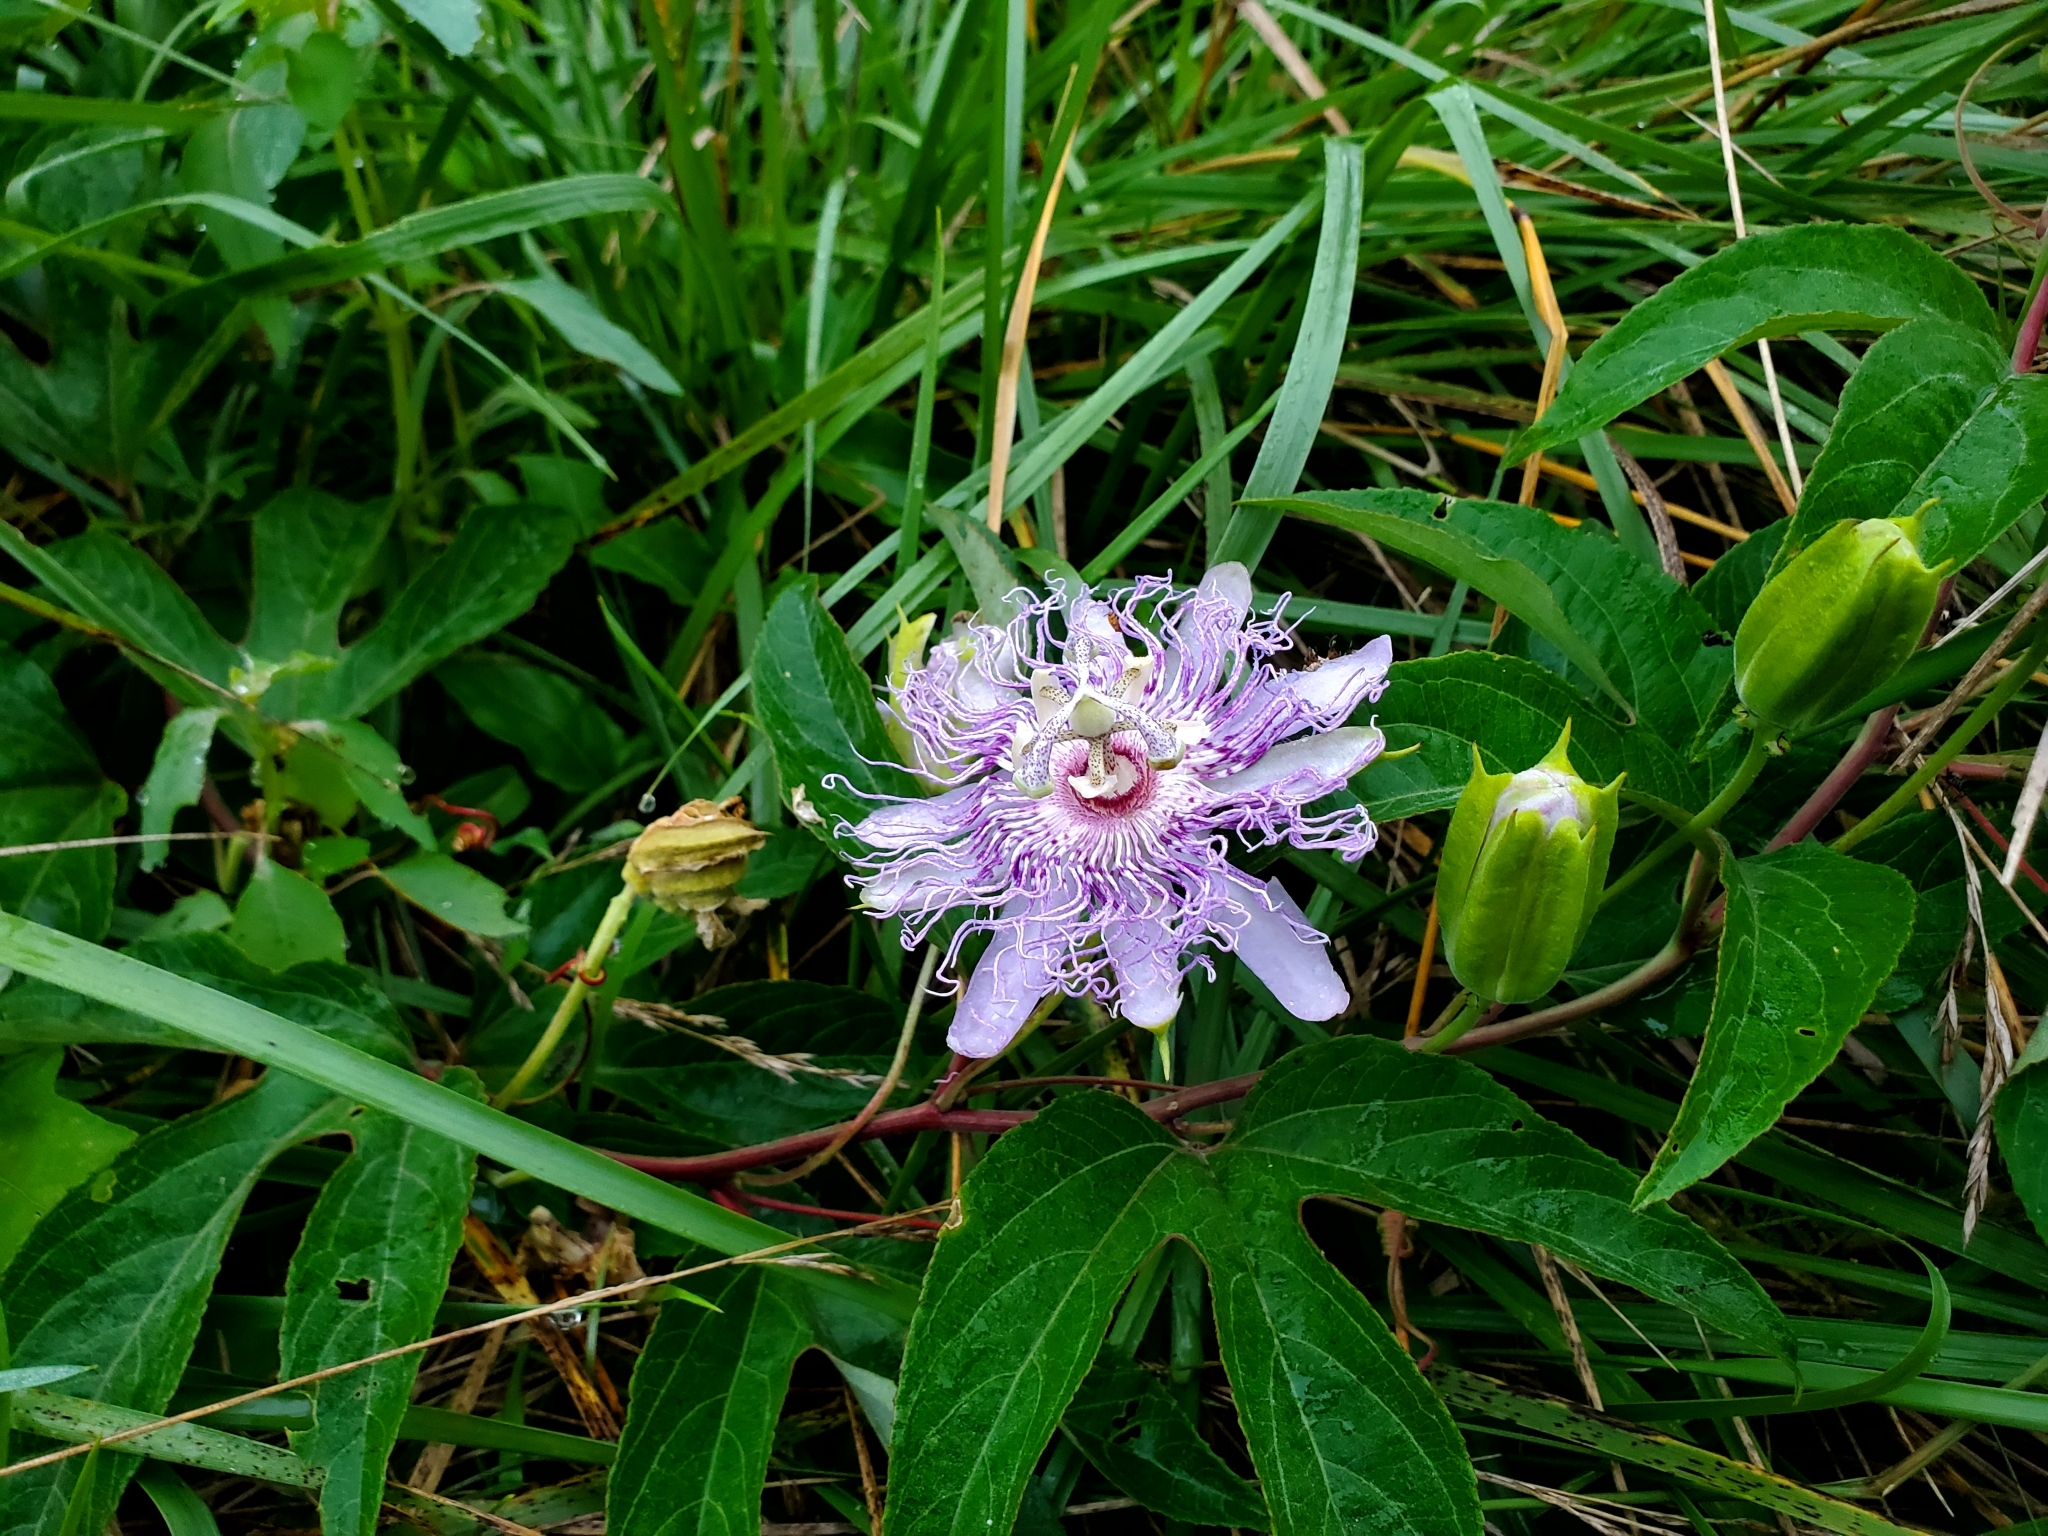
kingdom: Plantae
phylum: Tracheophyta
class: Magnoliopsida
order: Malpighiales
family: Passifloraceae
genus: Passiflora
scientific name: Passiflora incarnata
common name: Apricot-vine
